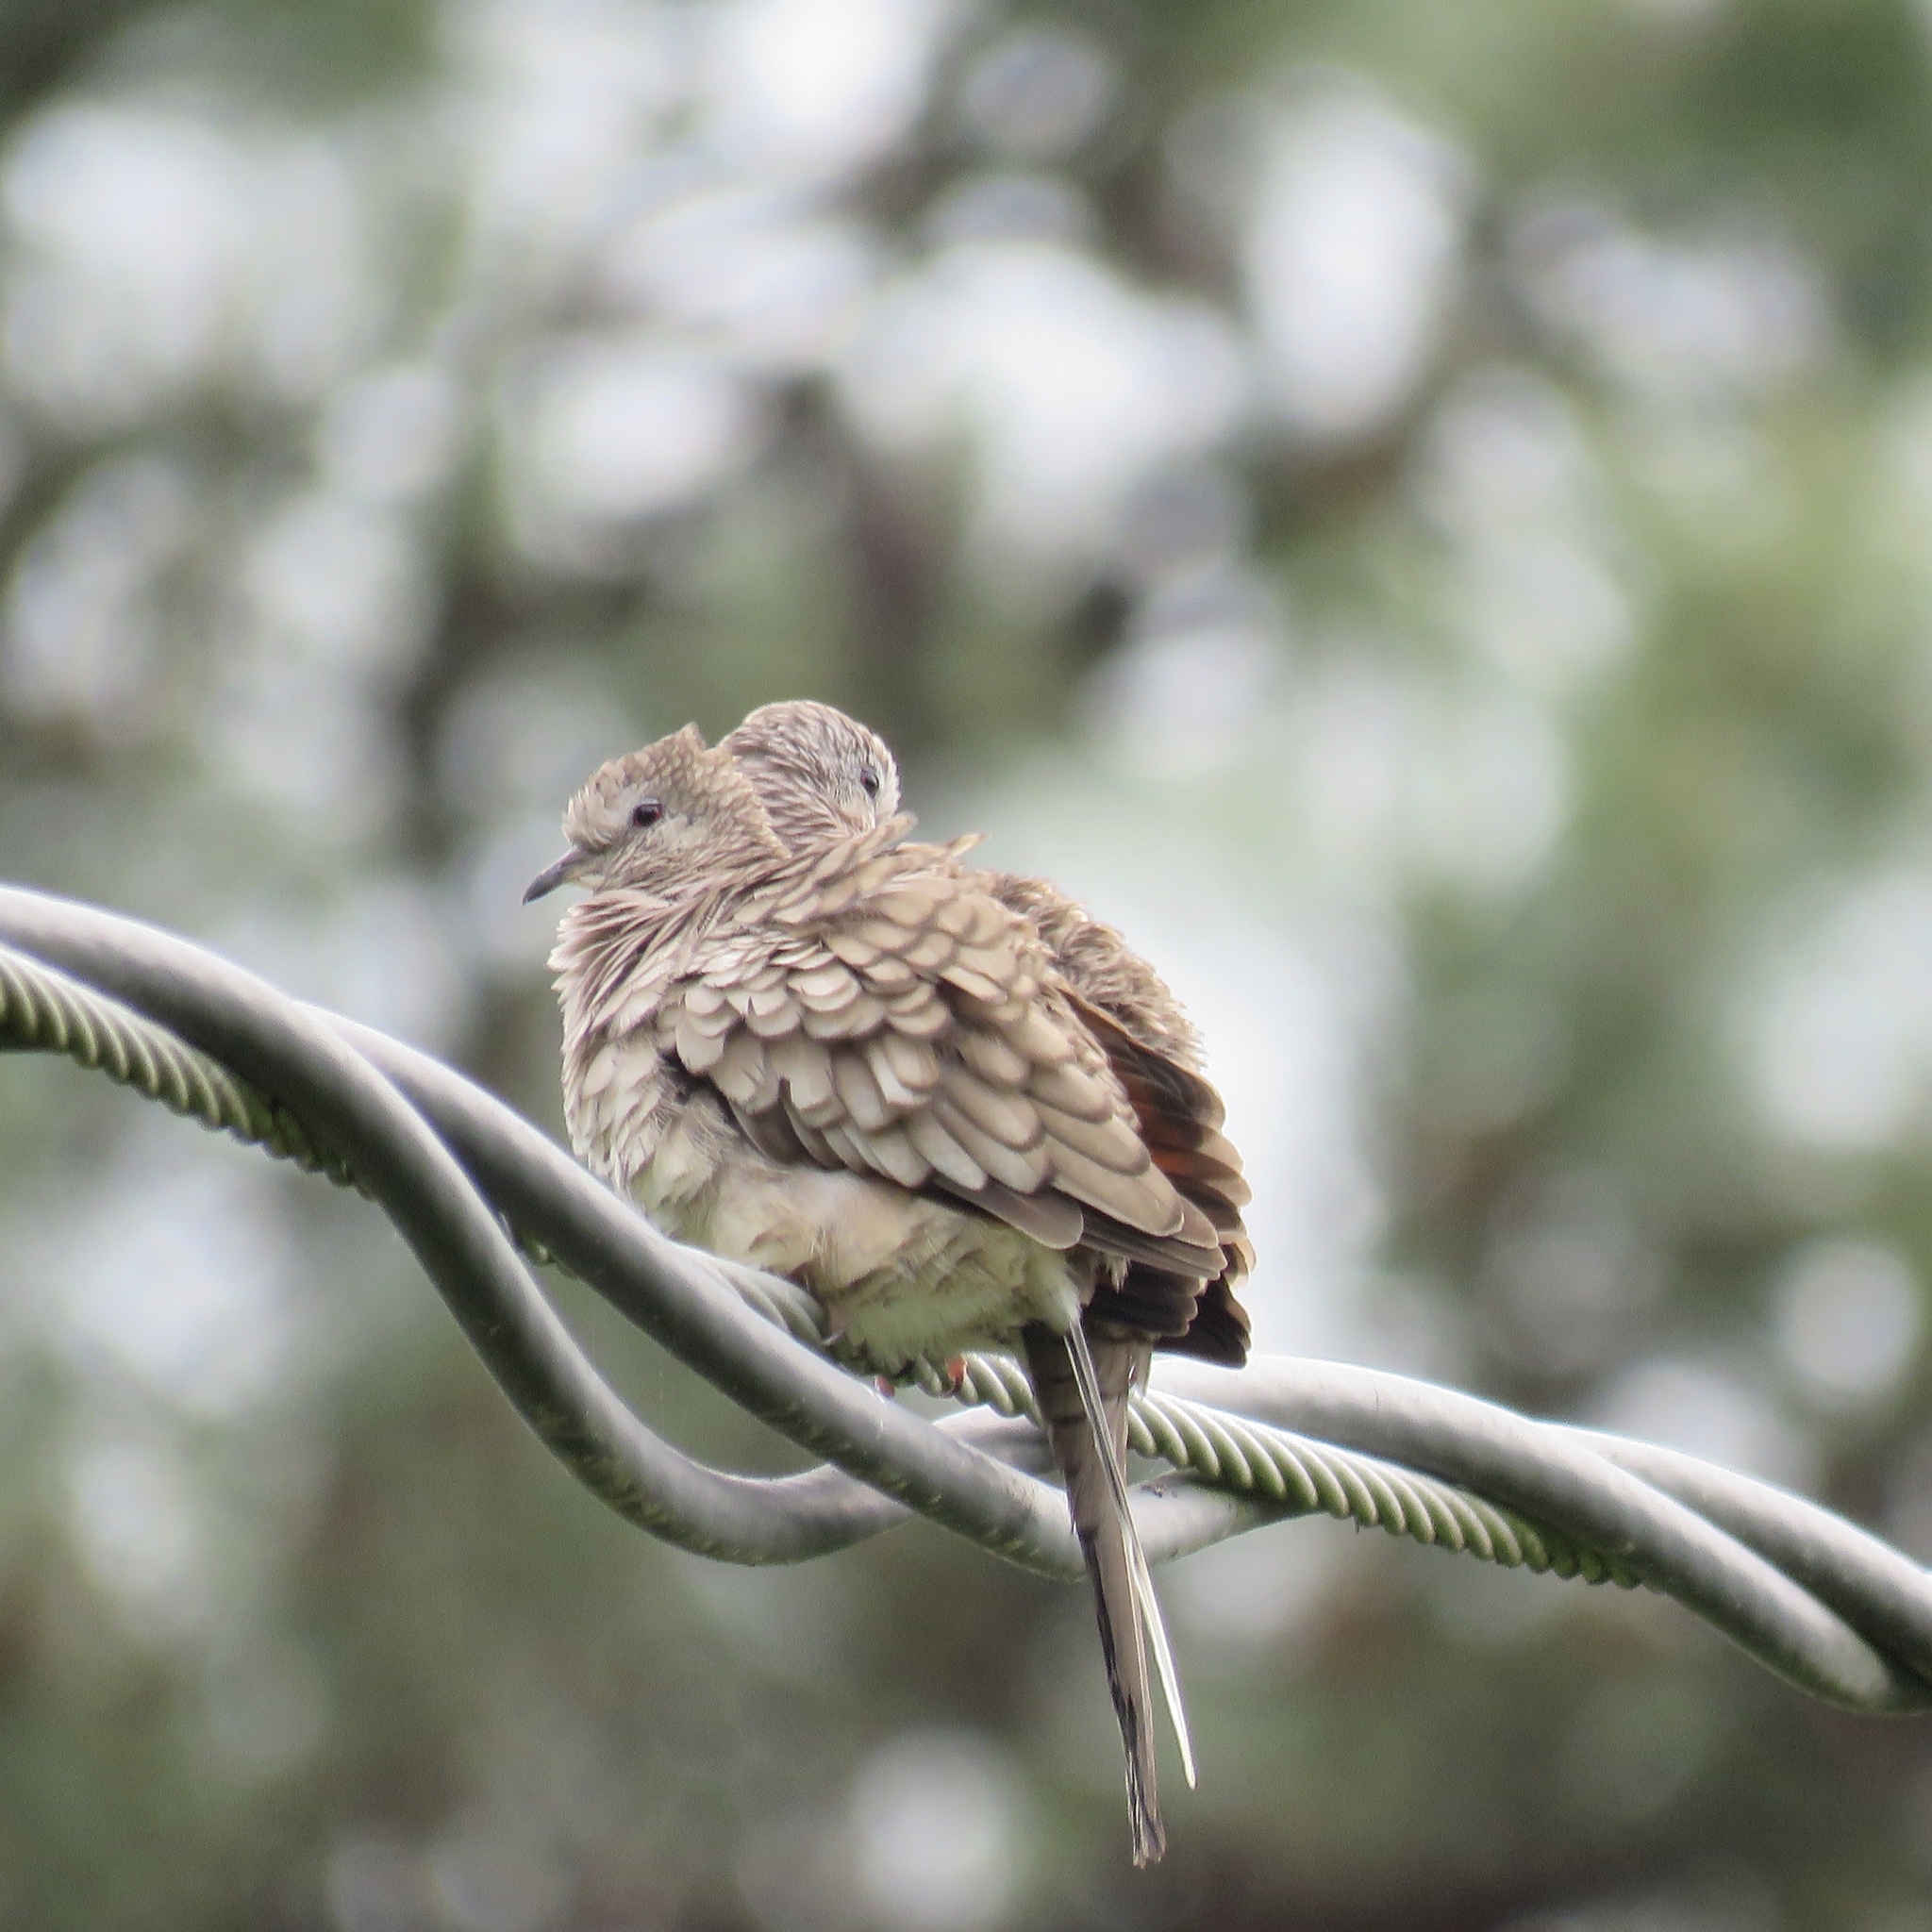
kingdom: Animalia
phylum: Chordata
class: Aves
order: Columbiformes
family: Columbidae
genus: Columbina
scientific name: Columbina inca
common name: Inca dove
